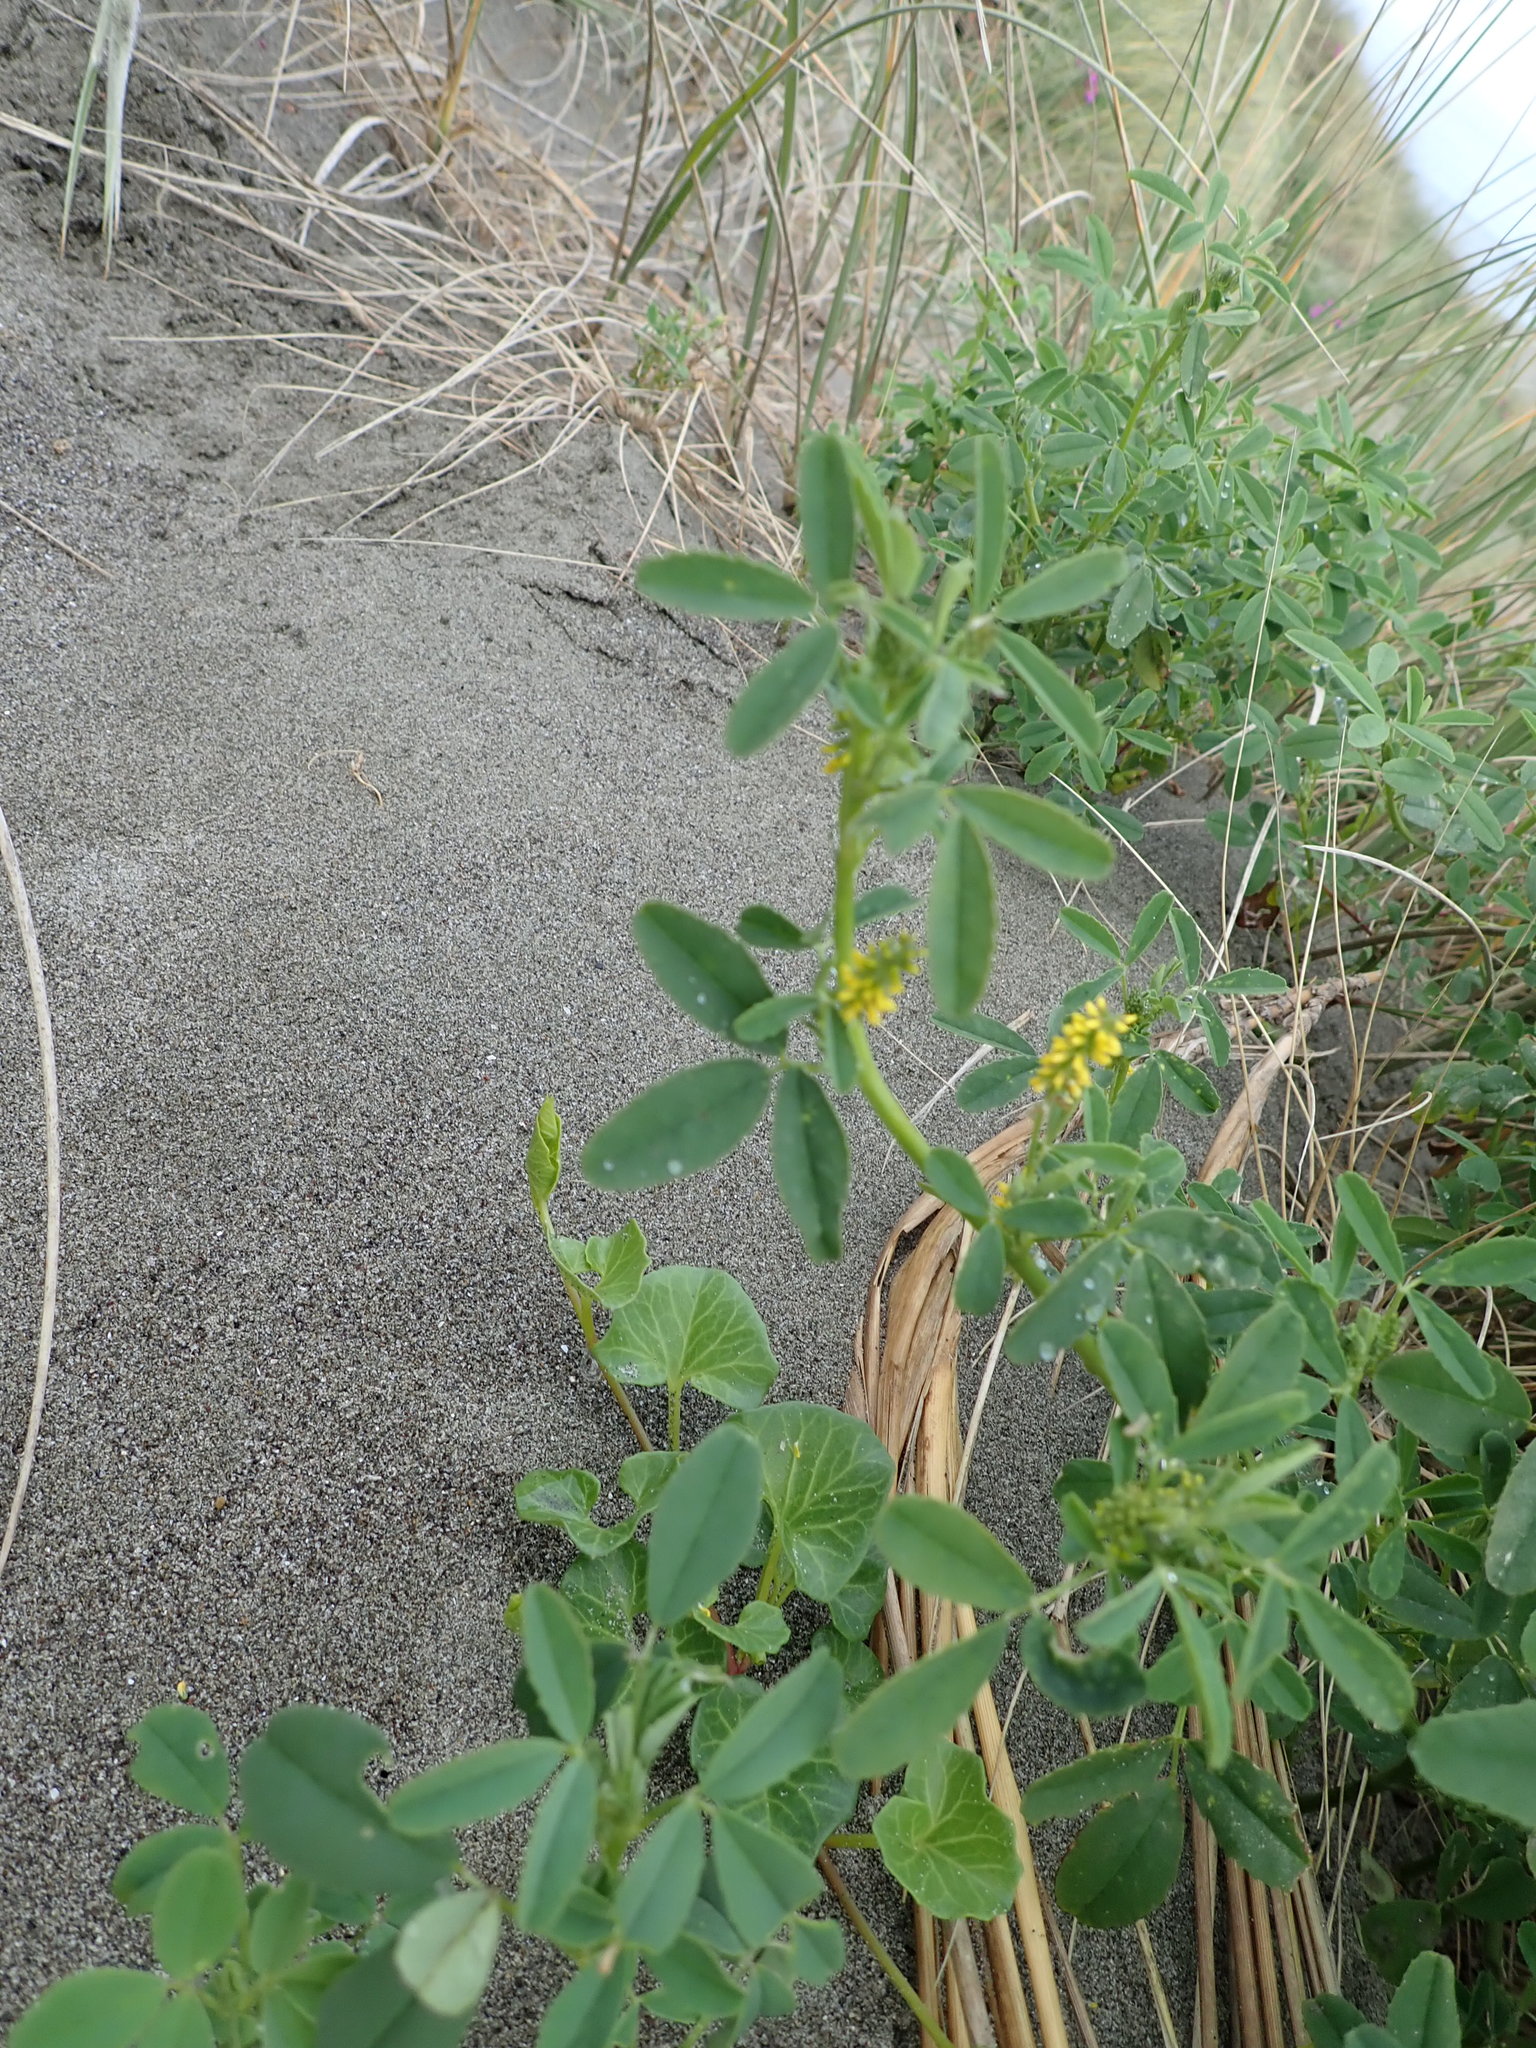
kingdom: Plantae
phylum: Tracheophyta
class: Magnoliopsida
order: Fabales
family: Fabaceae
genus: Melilotus
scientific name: Melilotus indicus
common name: Small melilot
